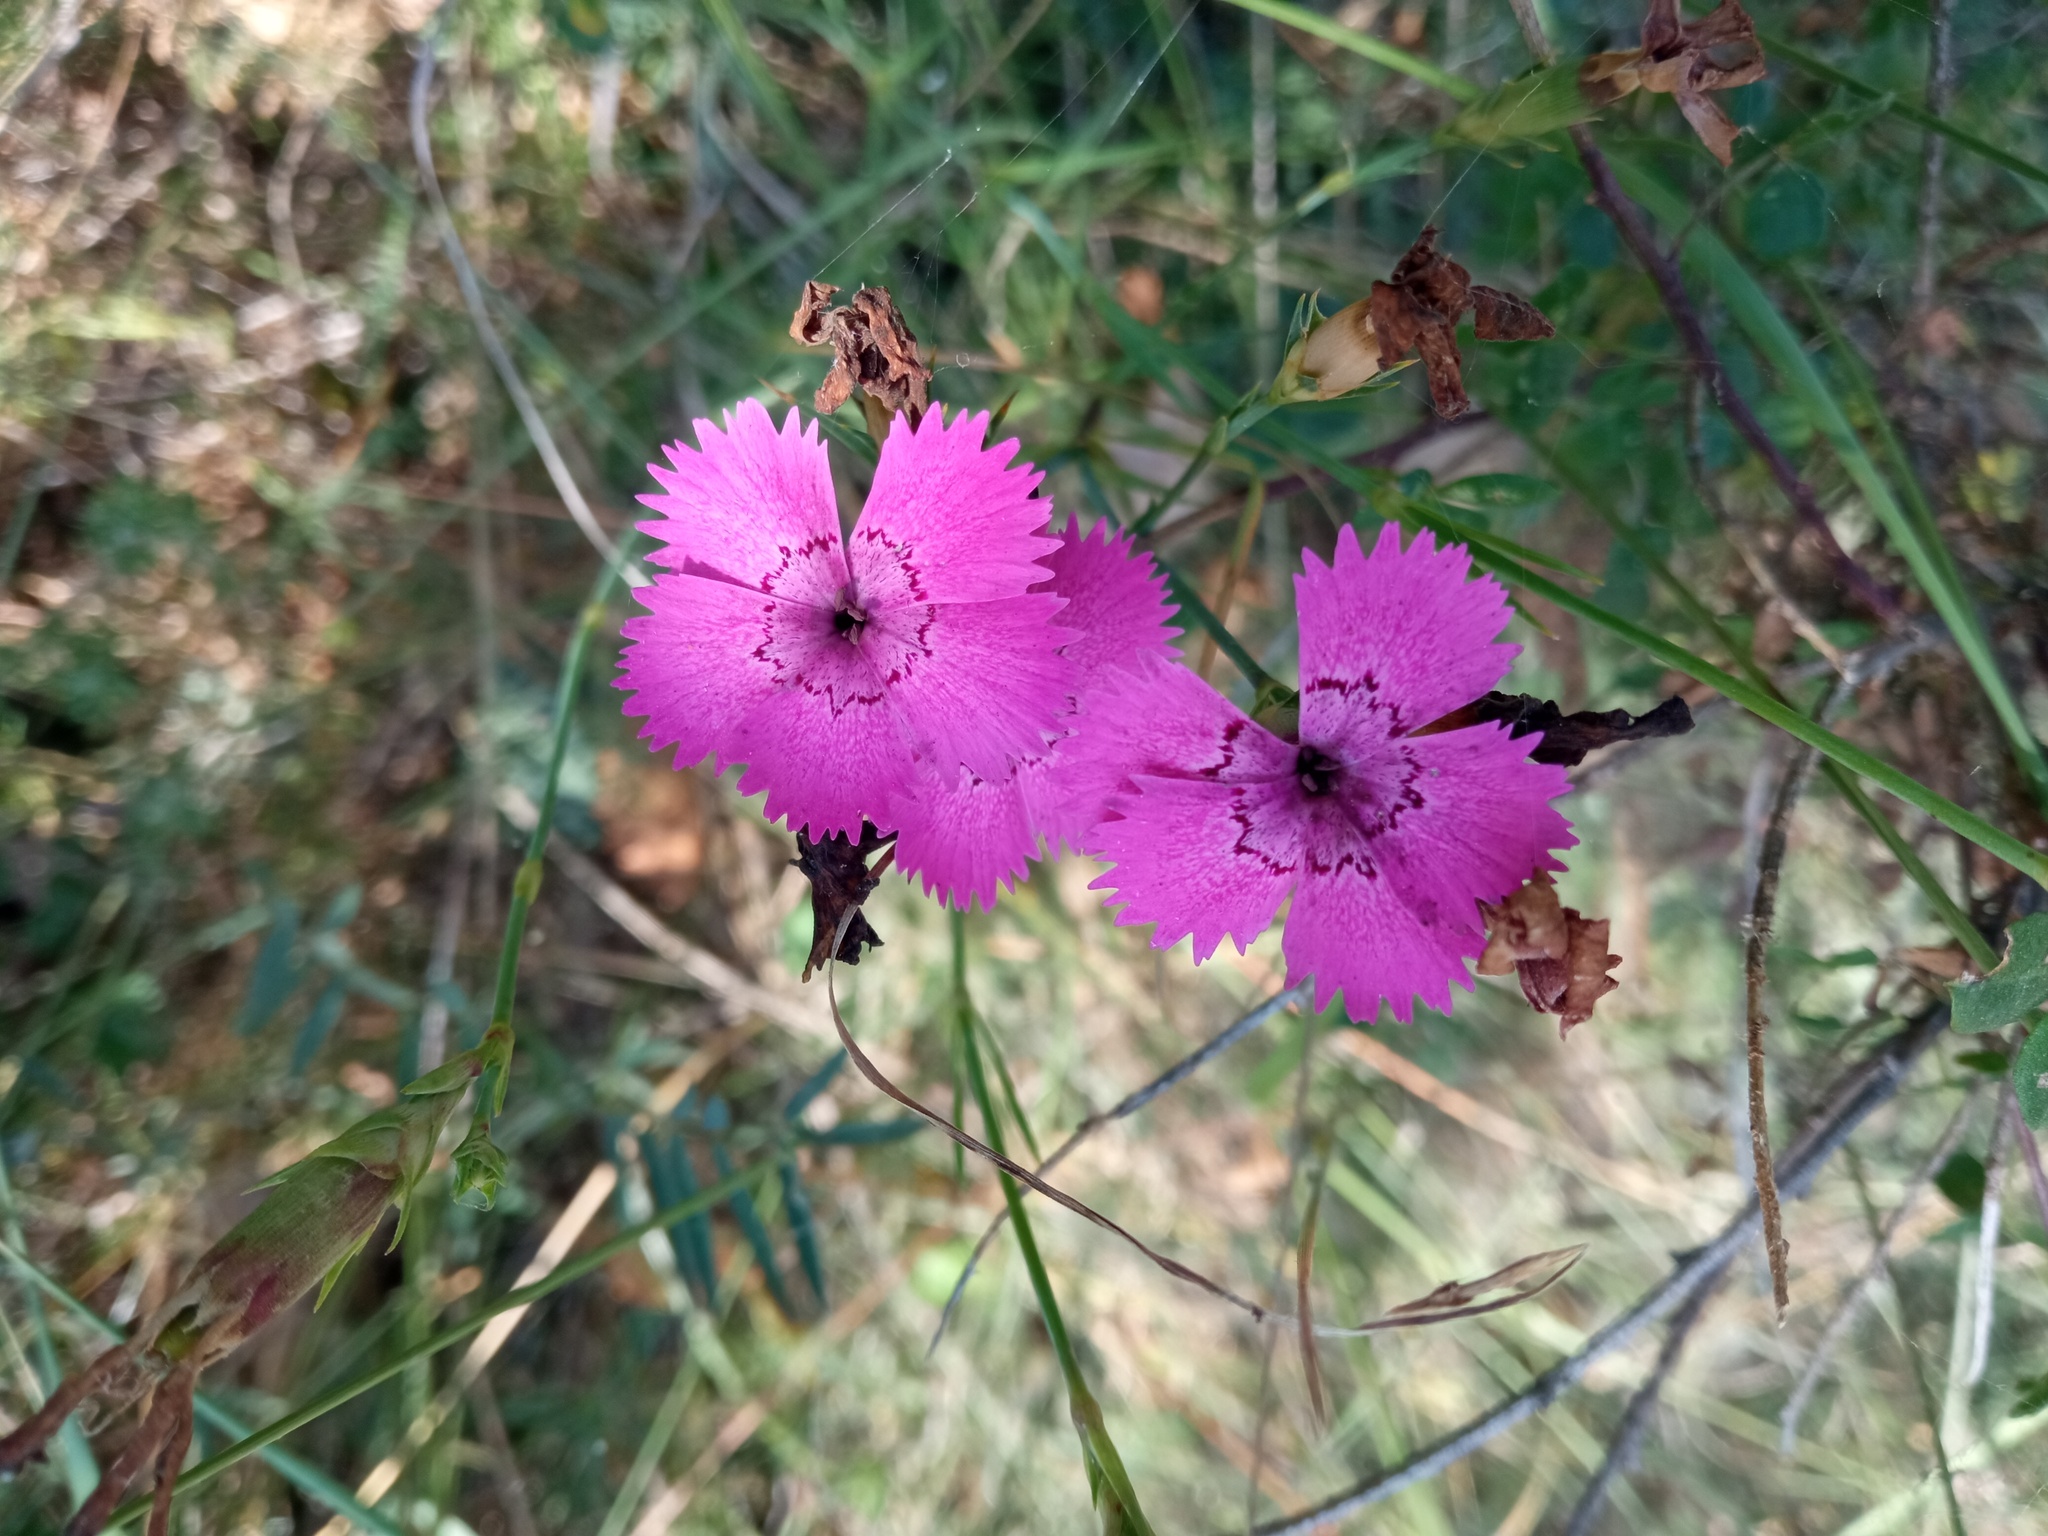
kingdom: Plantae
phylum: Tracheophyta
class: Magnoliopsida
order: Caryophyllales
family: Caryophyllaceae
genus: Dianthus
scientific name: Dianthus seguieri
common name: Ragged pink
